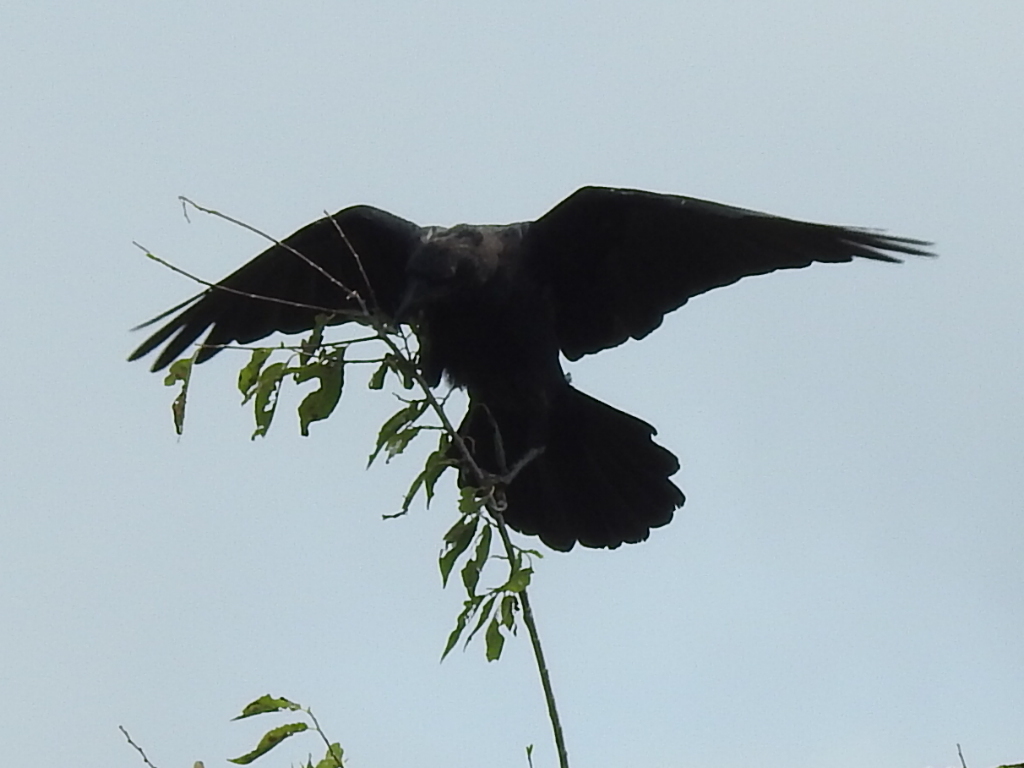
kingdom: Animalia
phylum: Chordata
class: Aves
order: Passeriformes
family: Corvidae
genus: Corvus
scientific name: Corvus brachyrhynchos
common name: American crow
